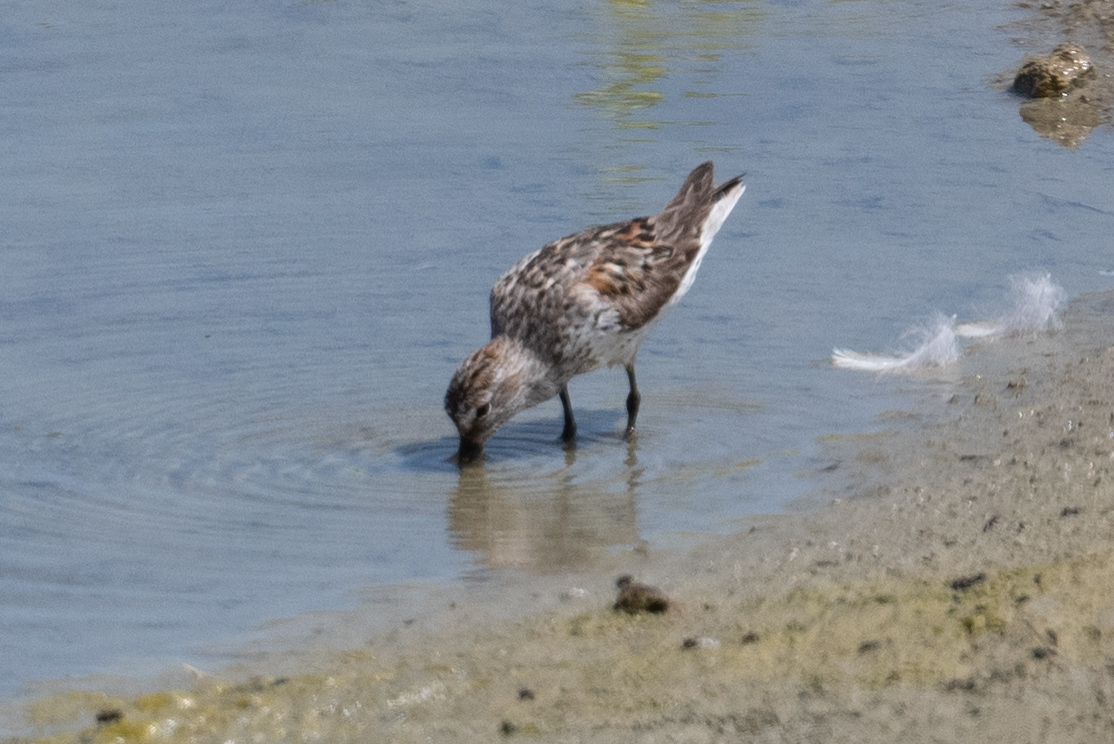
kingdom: Animalia
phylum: Chordata
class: Aves
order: Charadriiformes
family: Scolopacidae
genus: Calidris
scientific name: Calidris mauri
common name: Western sandpiper
